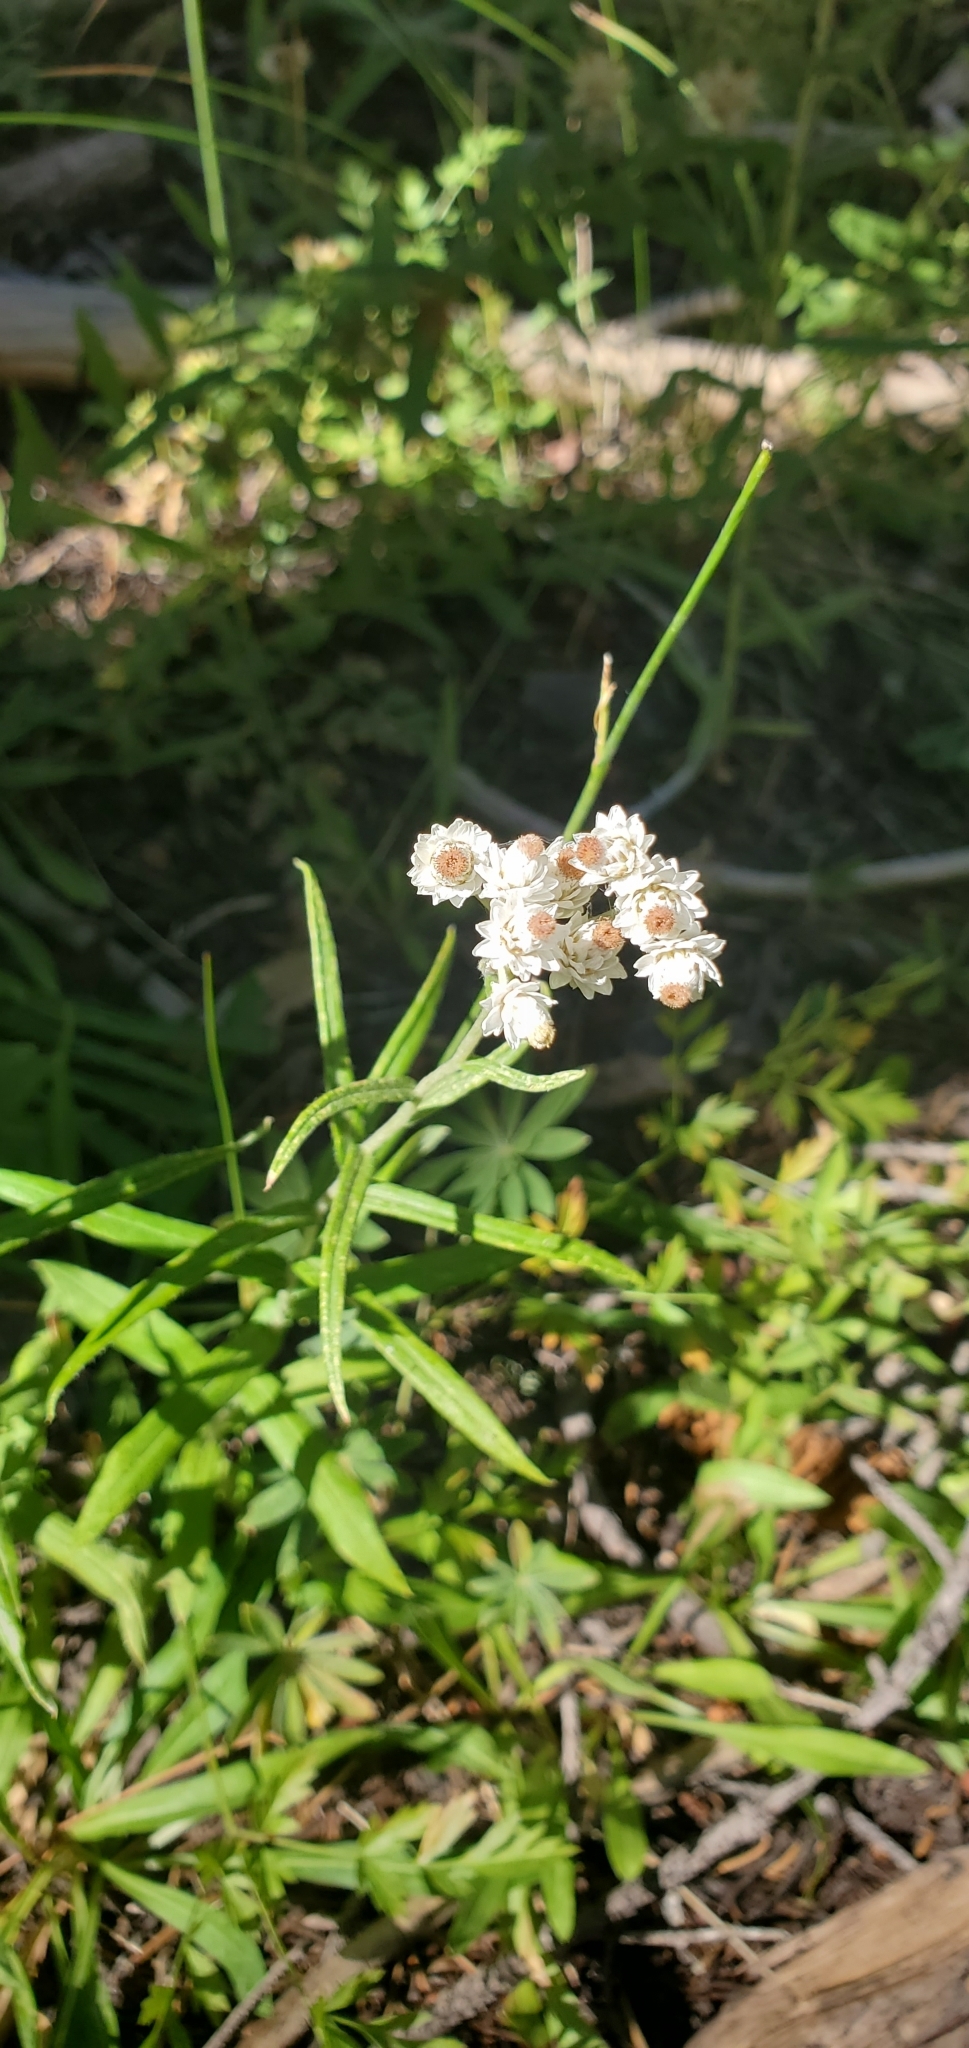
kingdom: Plantae
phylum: Tracheophyta
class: Magnoliopsida
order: Asterales
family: Asteraceae
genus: Anaphalis
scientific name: Anaphalis margaritacea
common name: Pearly everlasting
